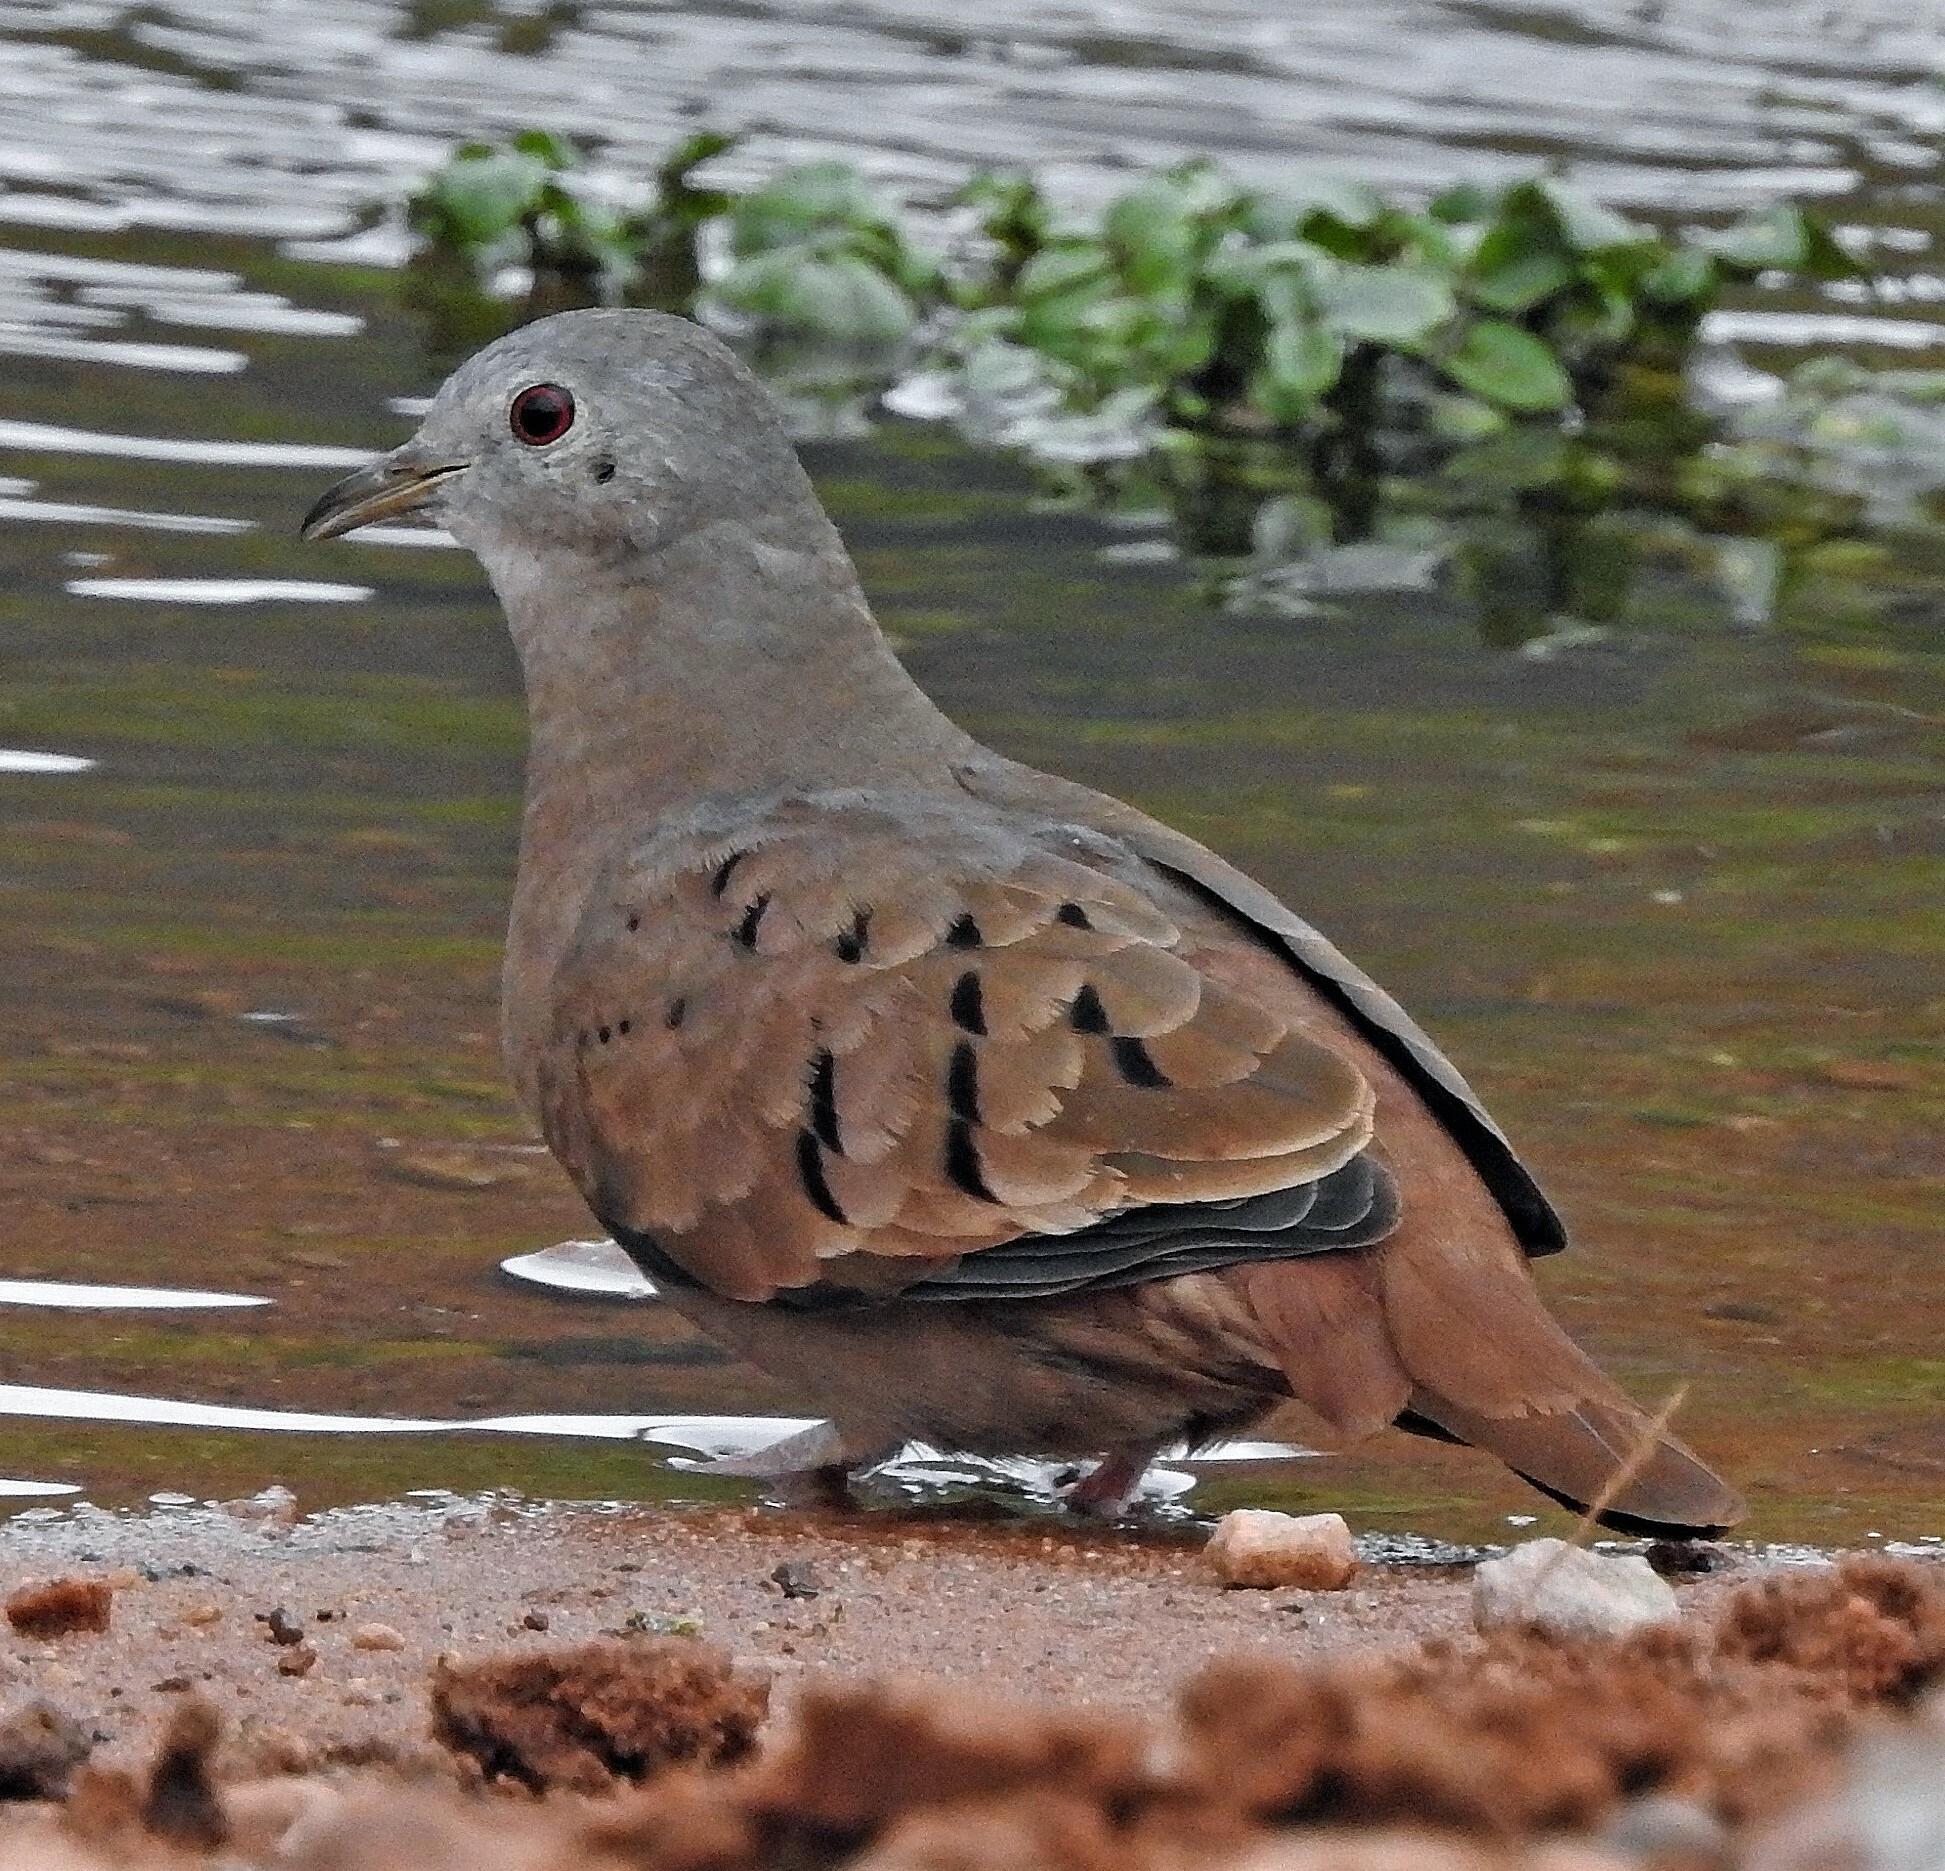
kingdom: Animalia
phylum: Chordata
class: Aves
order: Columbiformes
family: Columbidae
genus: Columbina
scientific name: Columbina talpacoti
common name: Ruddy ground dove
